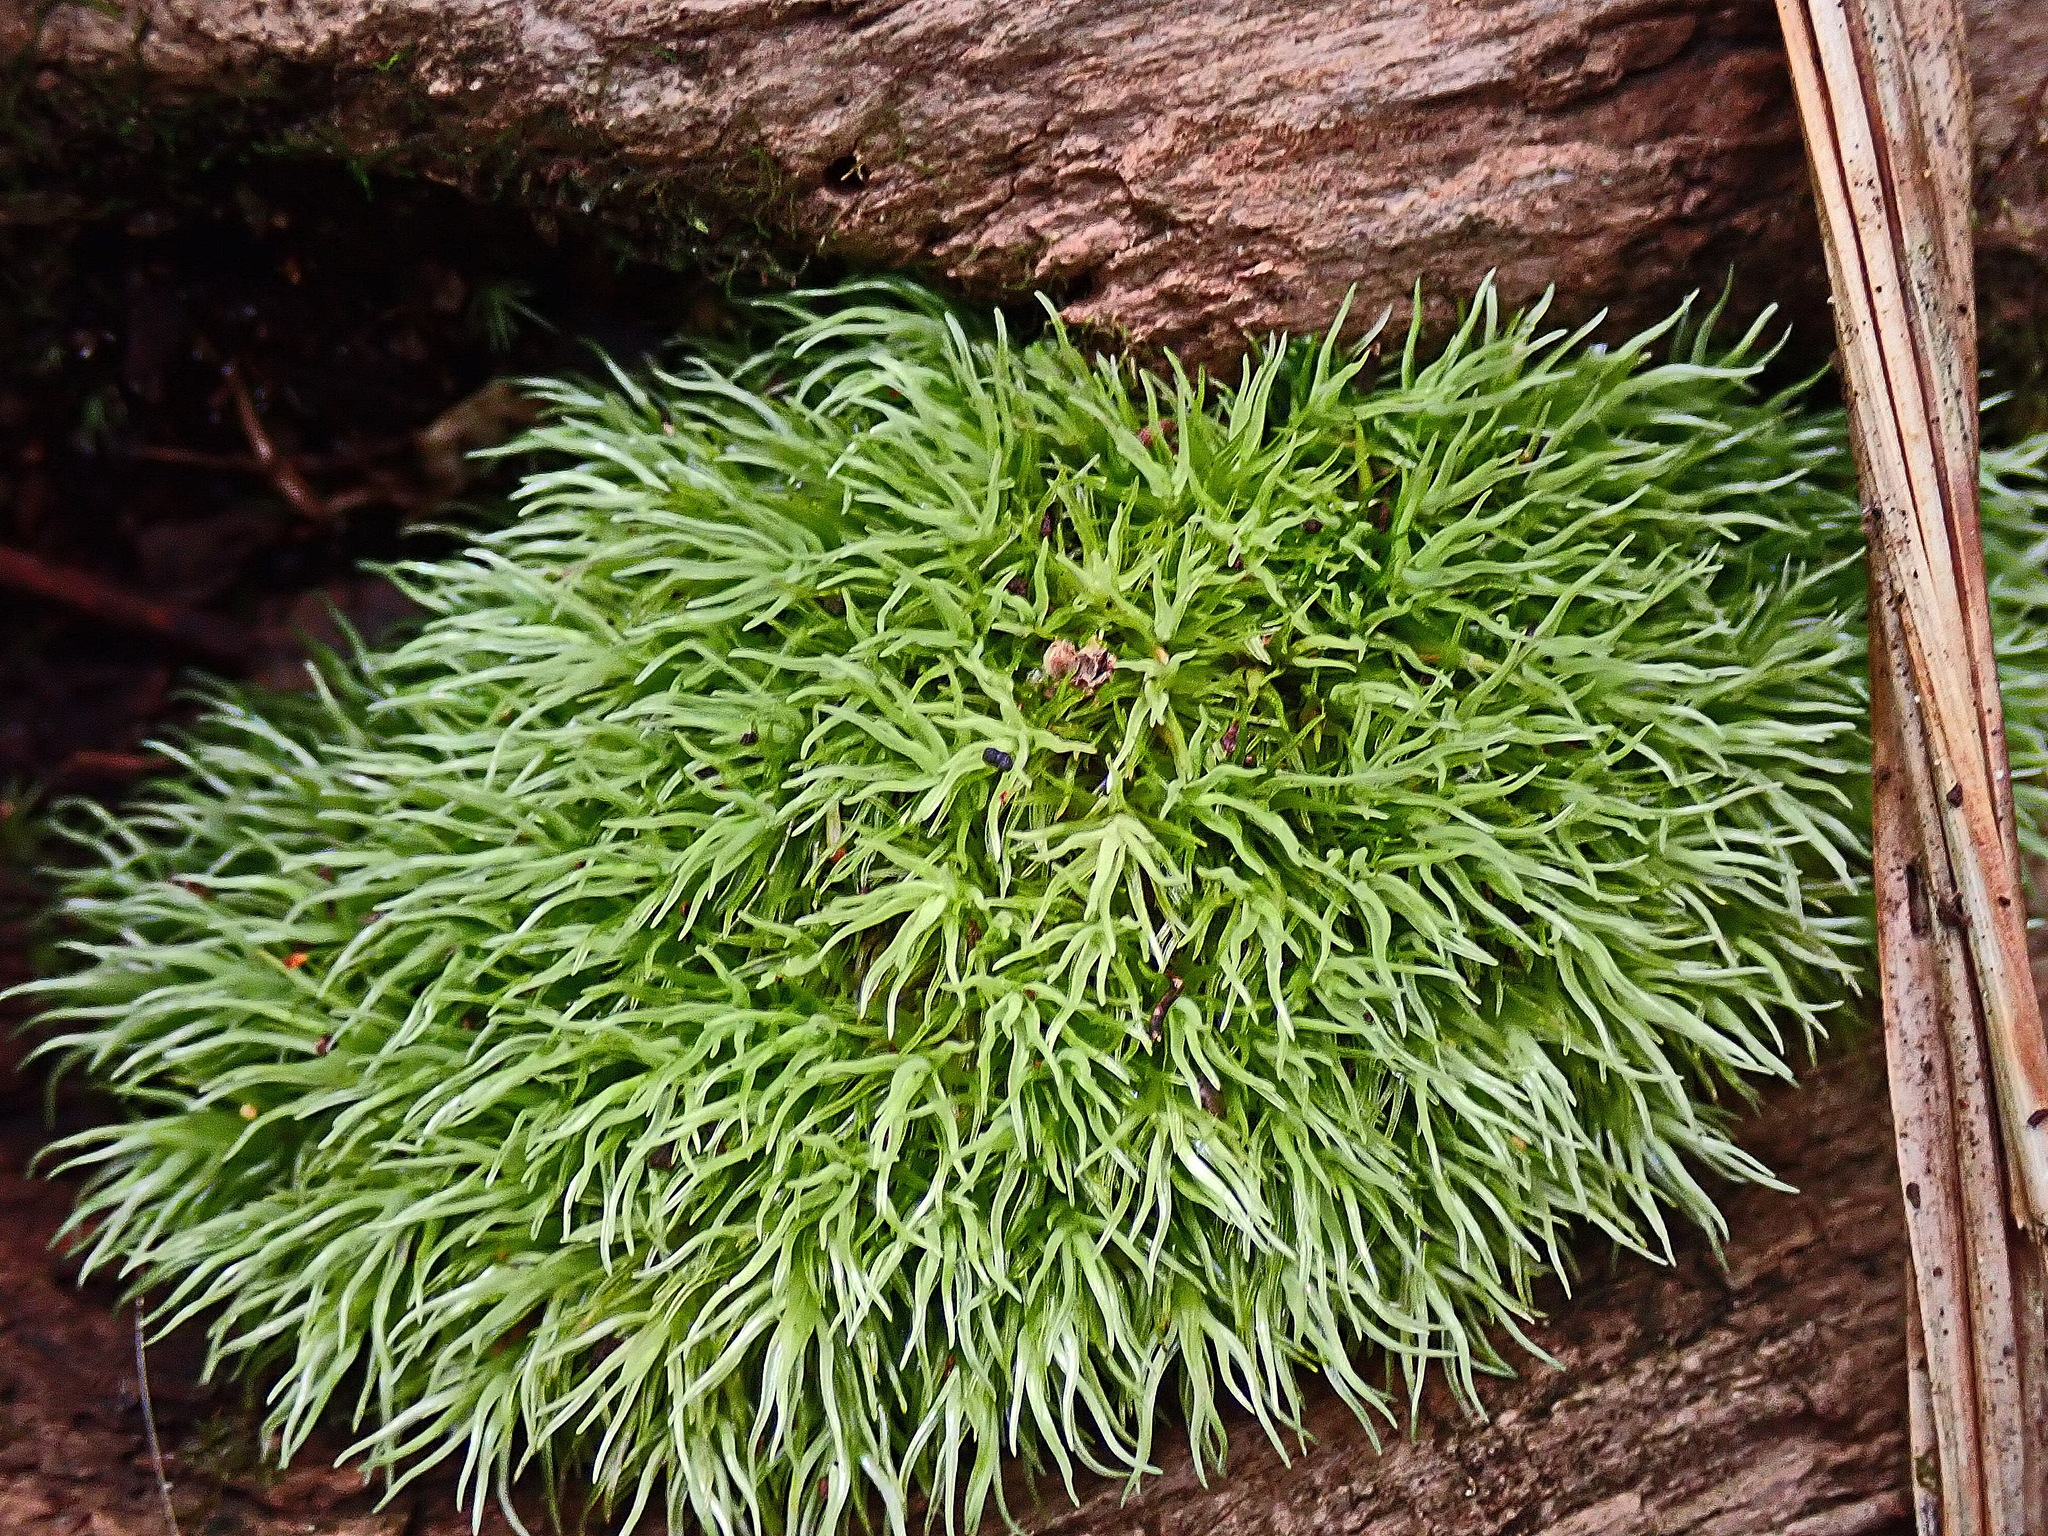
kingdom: Plantae
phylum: Bryophyta
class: Bryopsida
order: Dicranales
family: Leucobryaceae
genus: Leucobryum
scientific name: Leucobryum rehmannii
